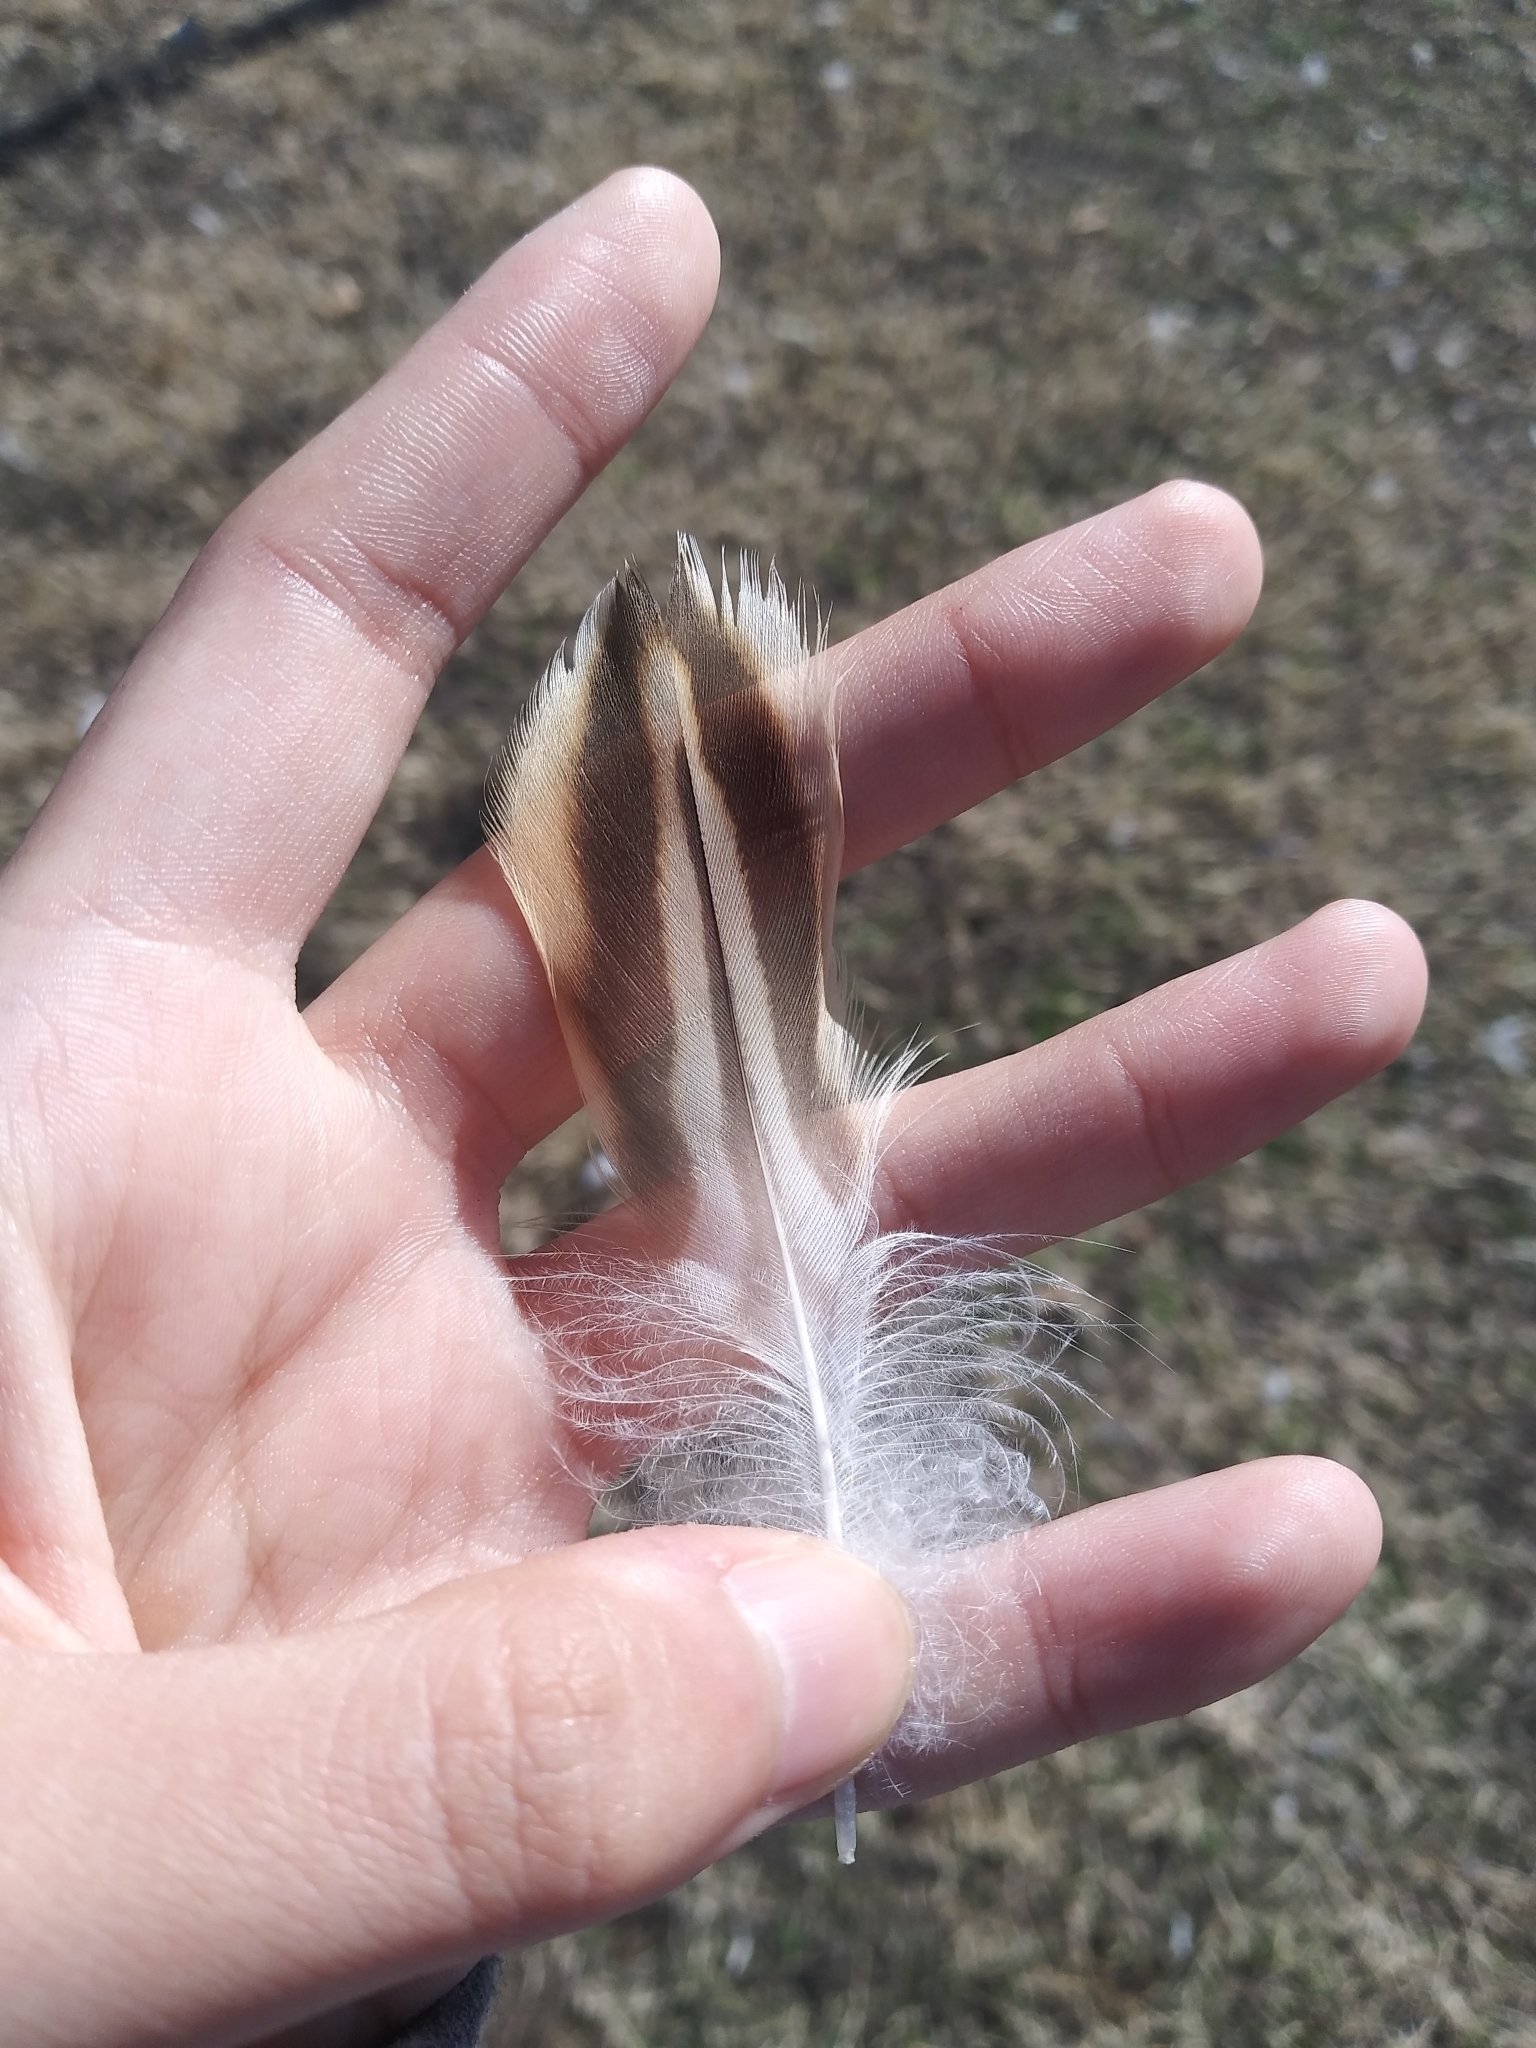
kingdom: Animalia
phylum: Chordata
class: Aves
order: Anseriformes
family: Anatidae
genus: Anas
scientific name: Anas platyrhynchos
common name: Mallard
